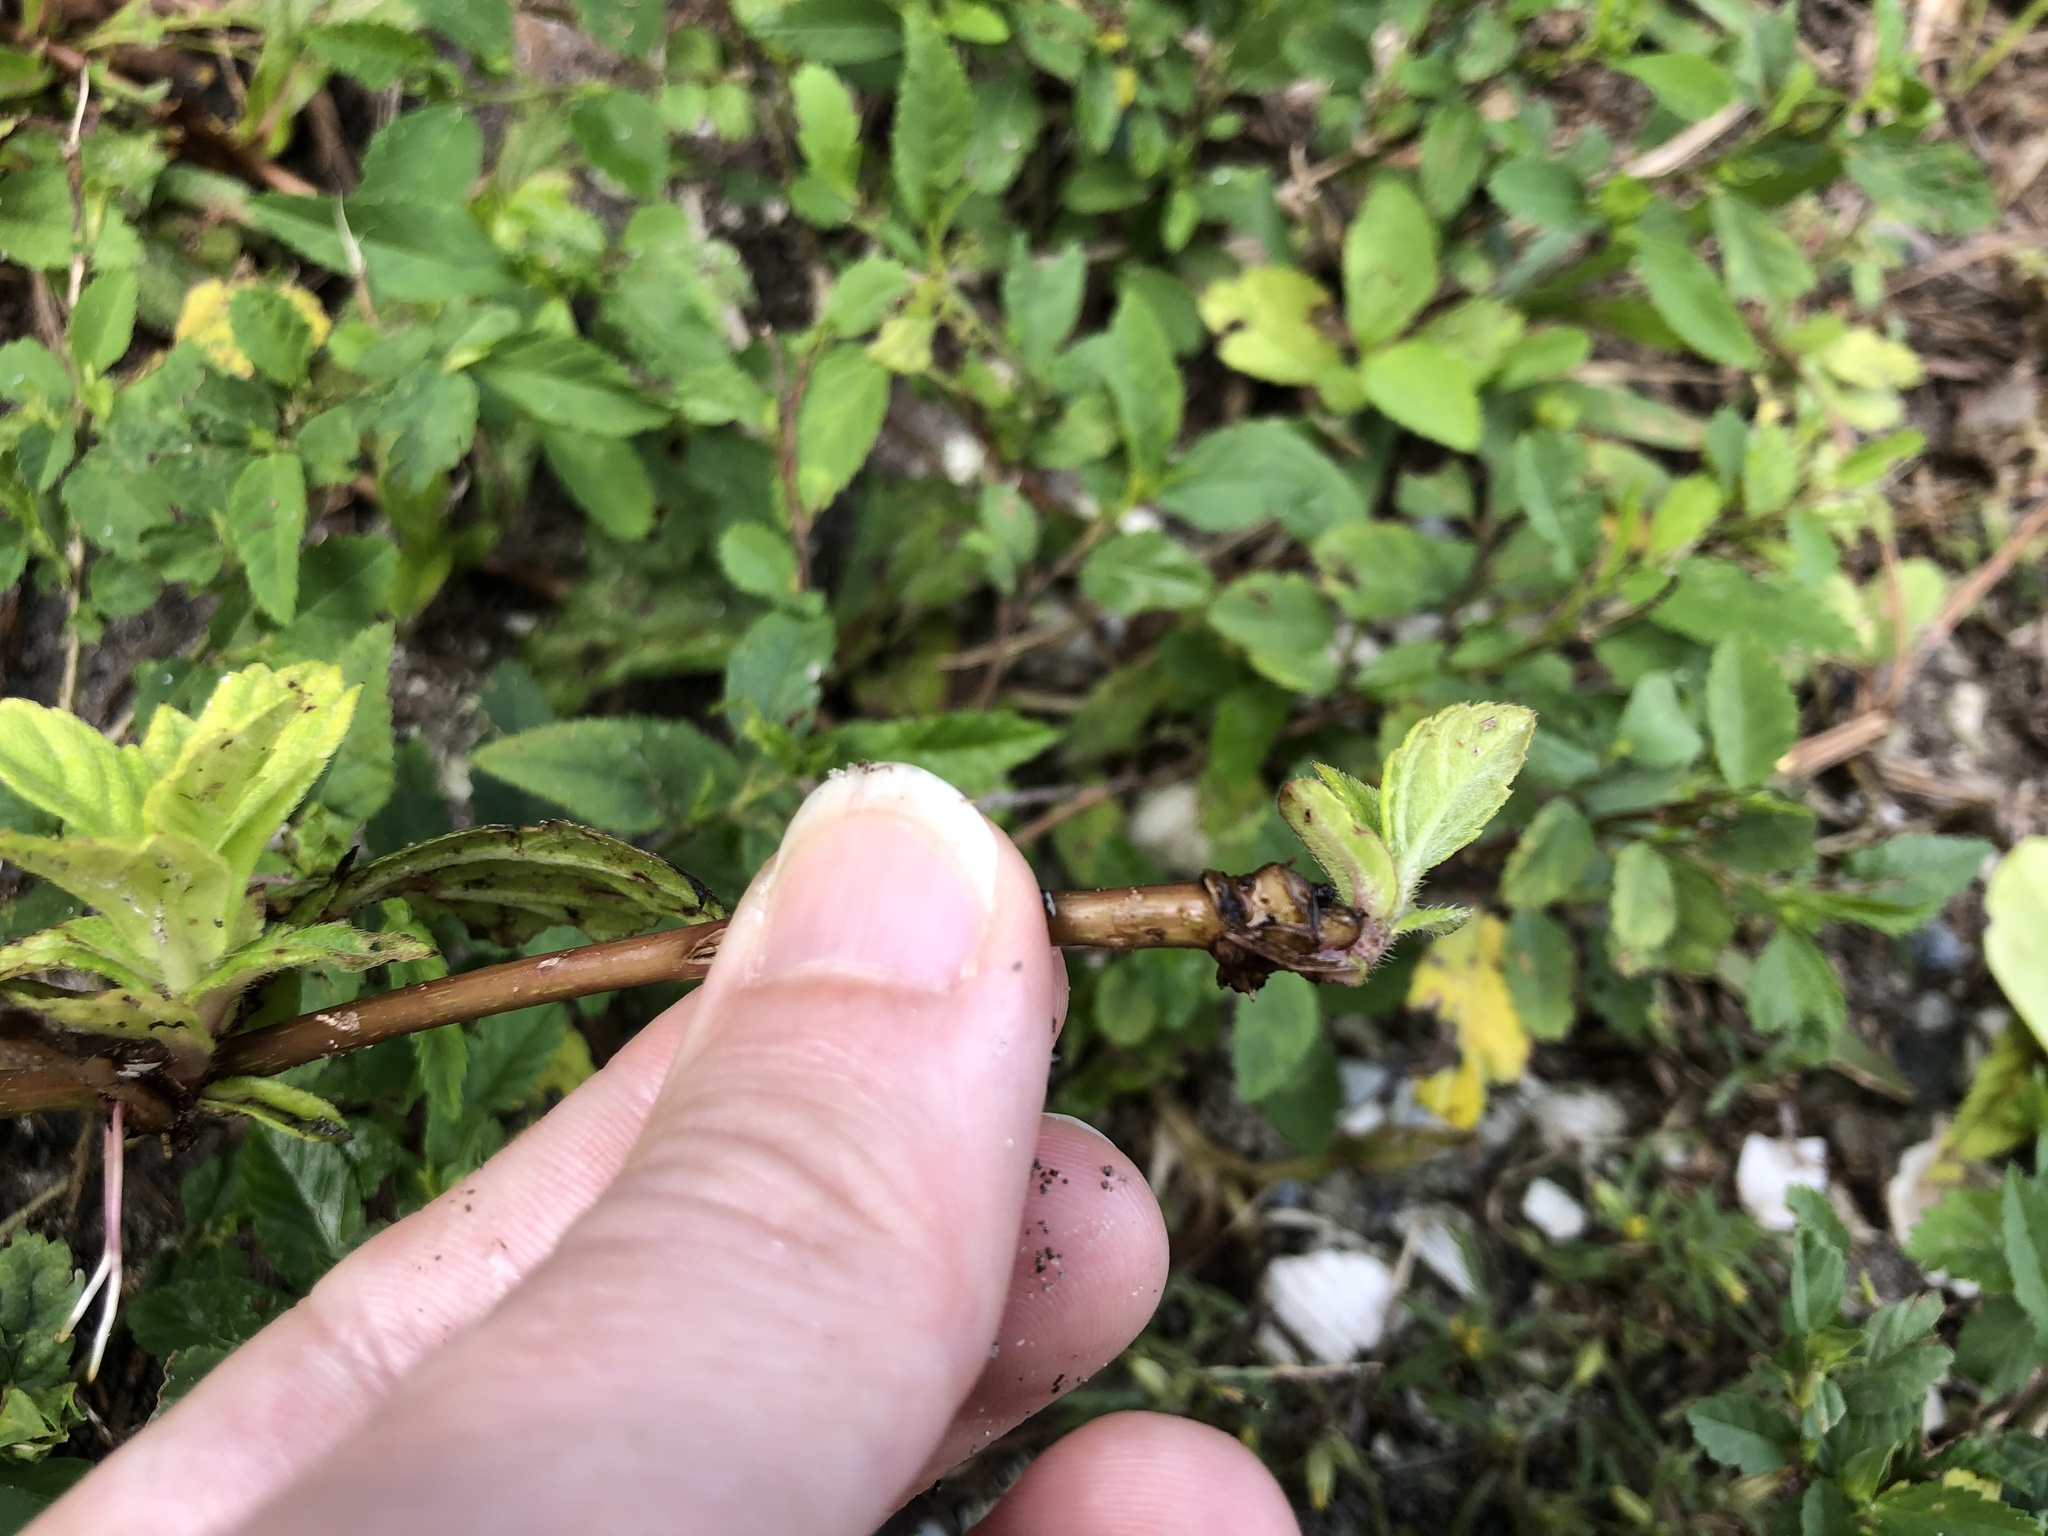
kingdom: Plantae
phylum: Tracheophyta
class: Magnoliopsida
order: Asterales
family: Asteraceae
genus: Sphagneticola
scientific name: Sphagneticola trilobata
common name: Bay biscayne creeping-oxeye
